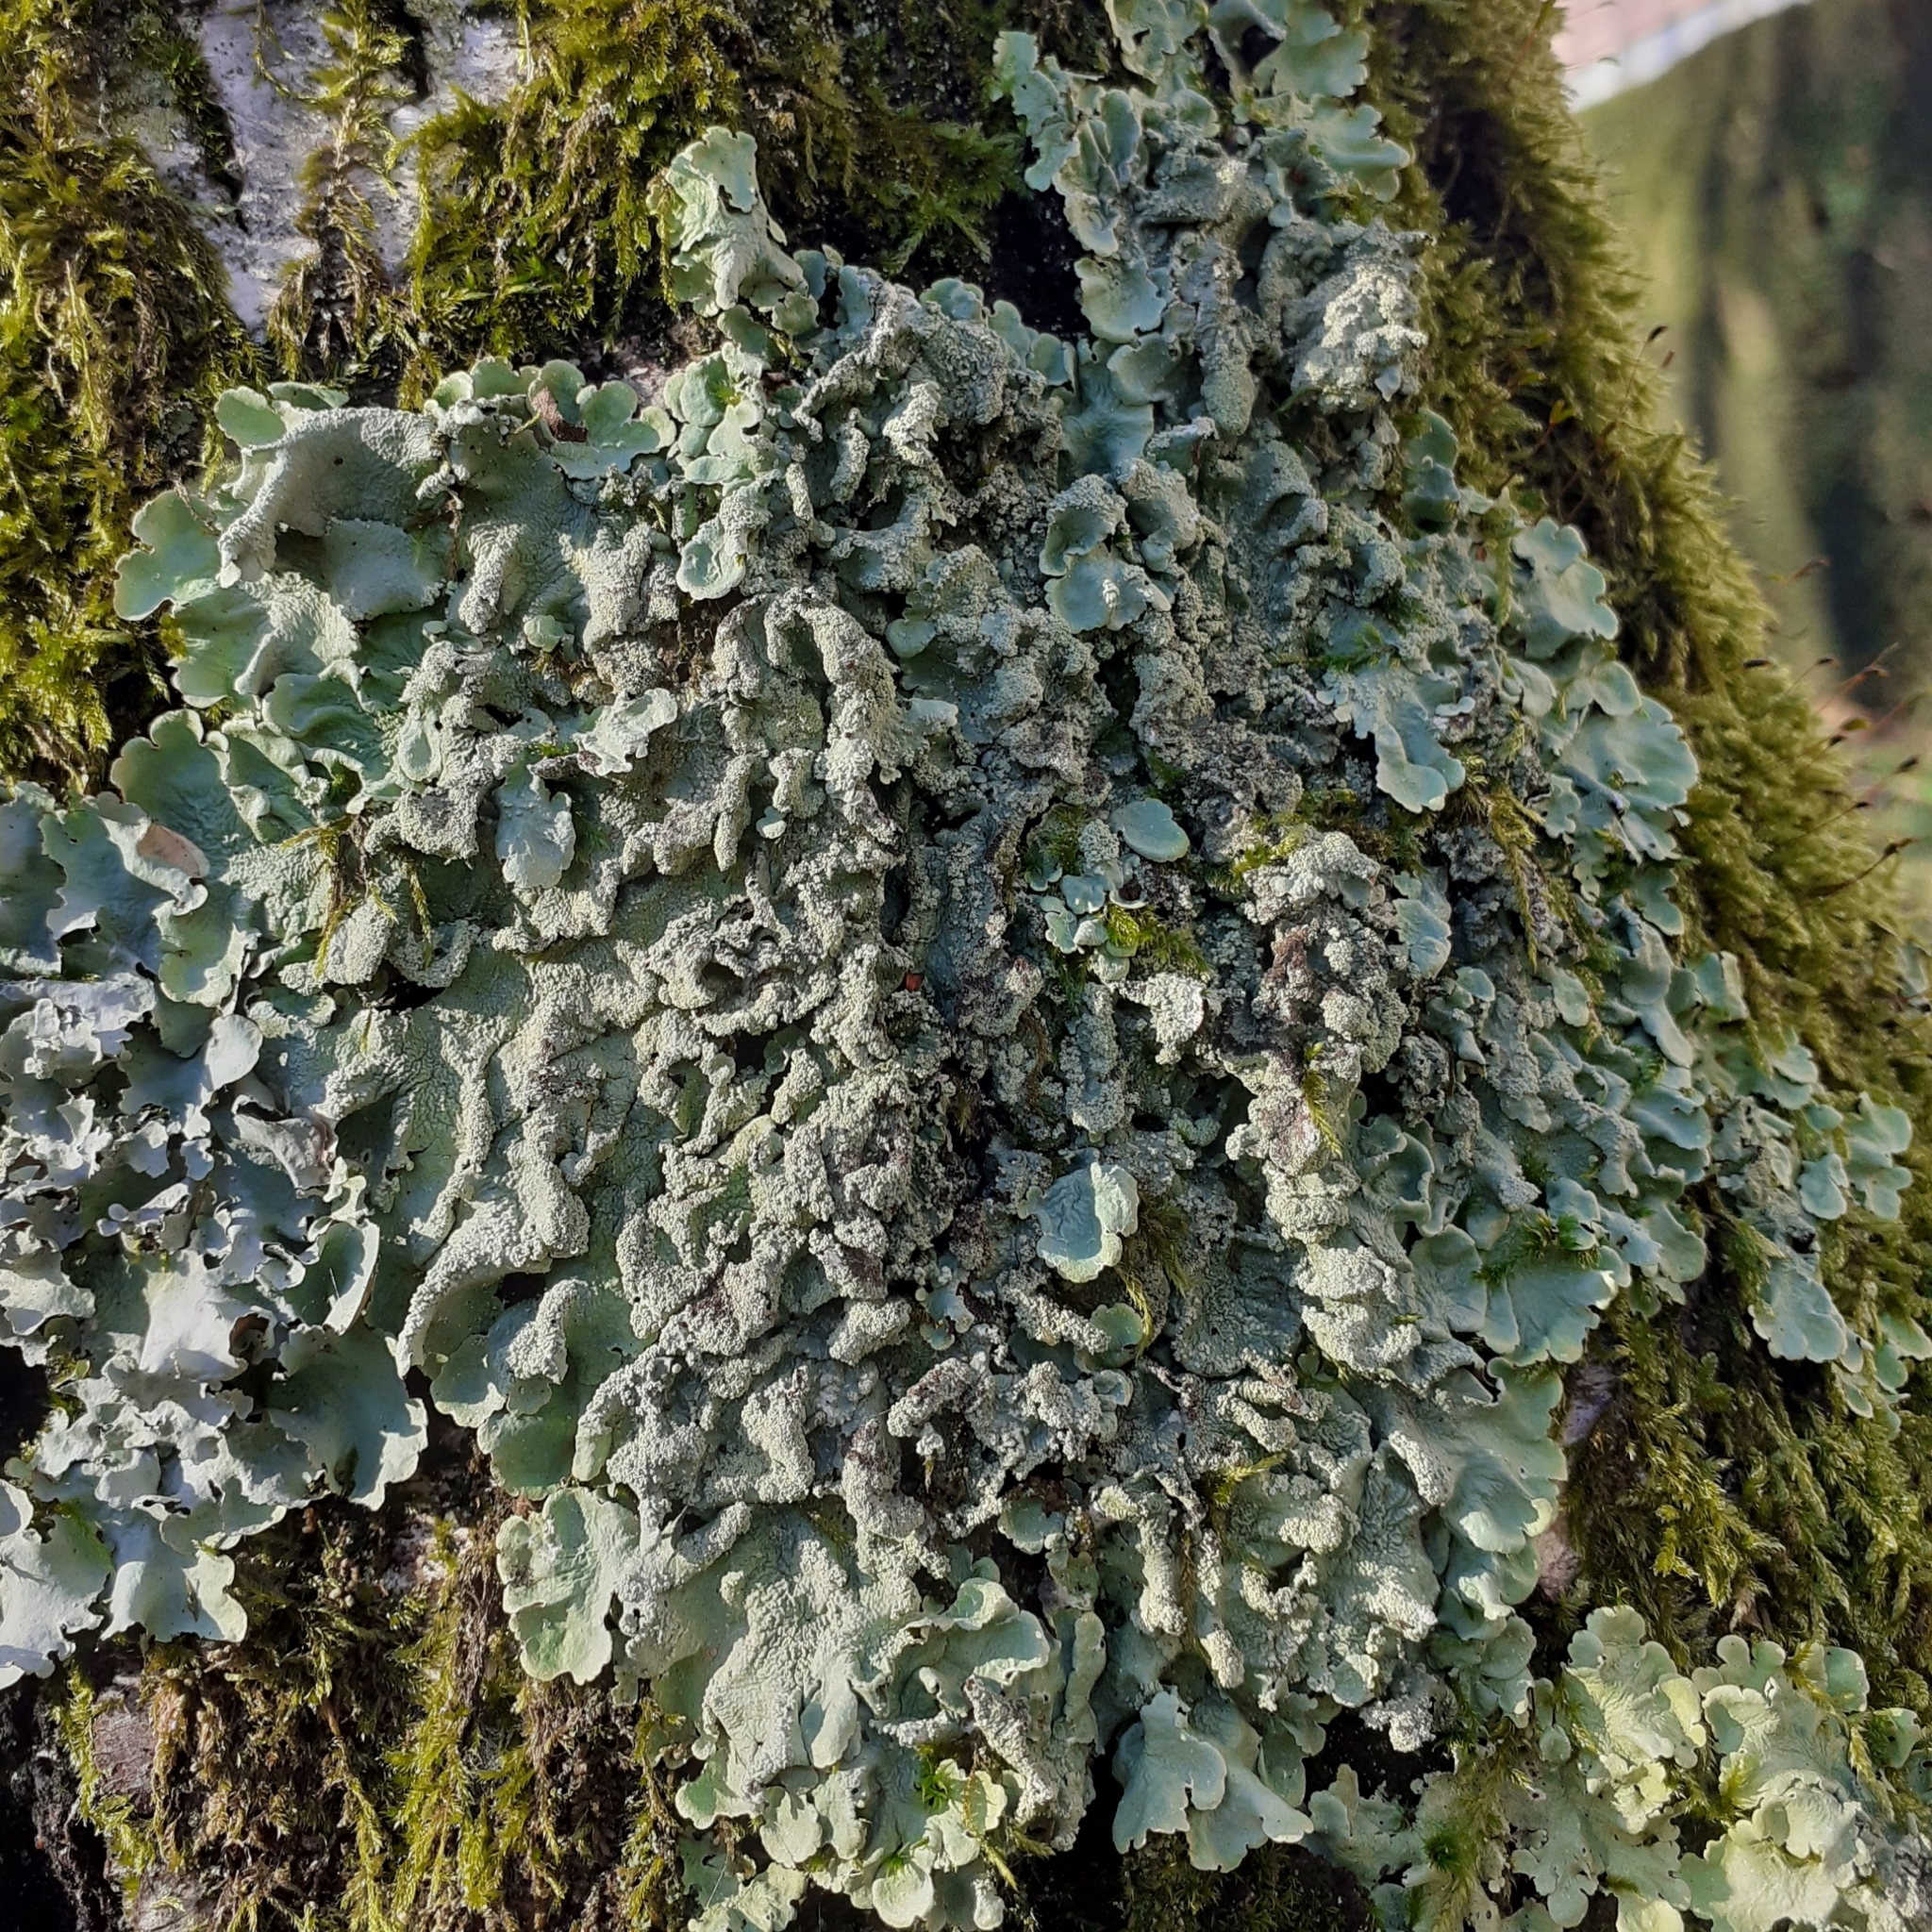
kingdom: Fungi
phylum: Ascomycota
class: Lecanoromycetes
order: Lecanorales
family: Parmeliaceae
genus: Flavoparmelia
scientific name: Flavoparmelia caperata
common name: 40-mile per hour lichen
